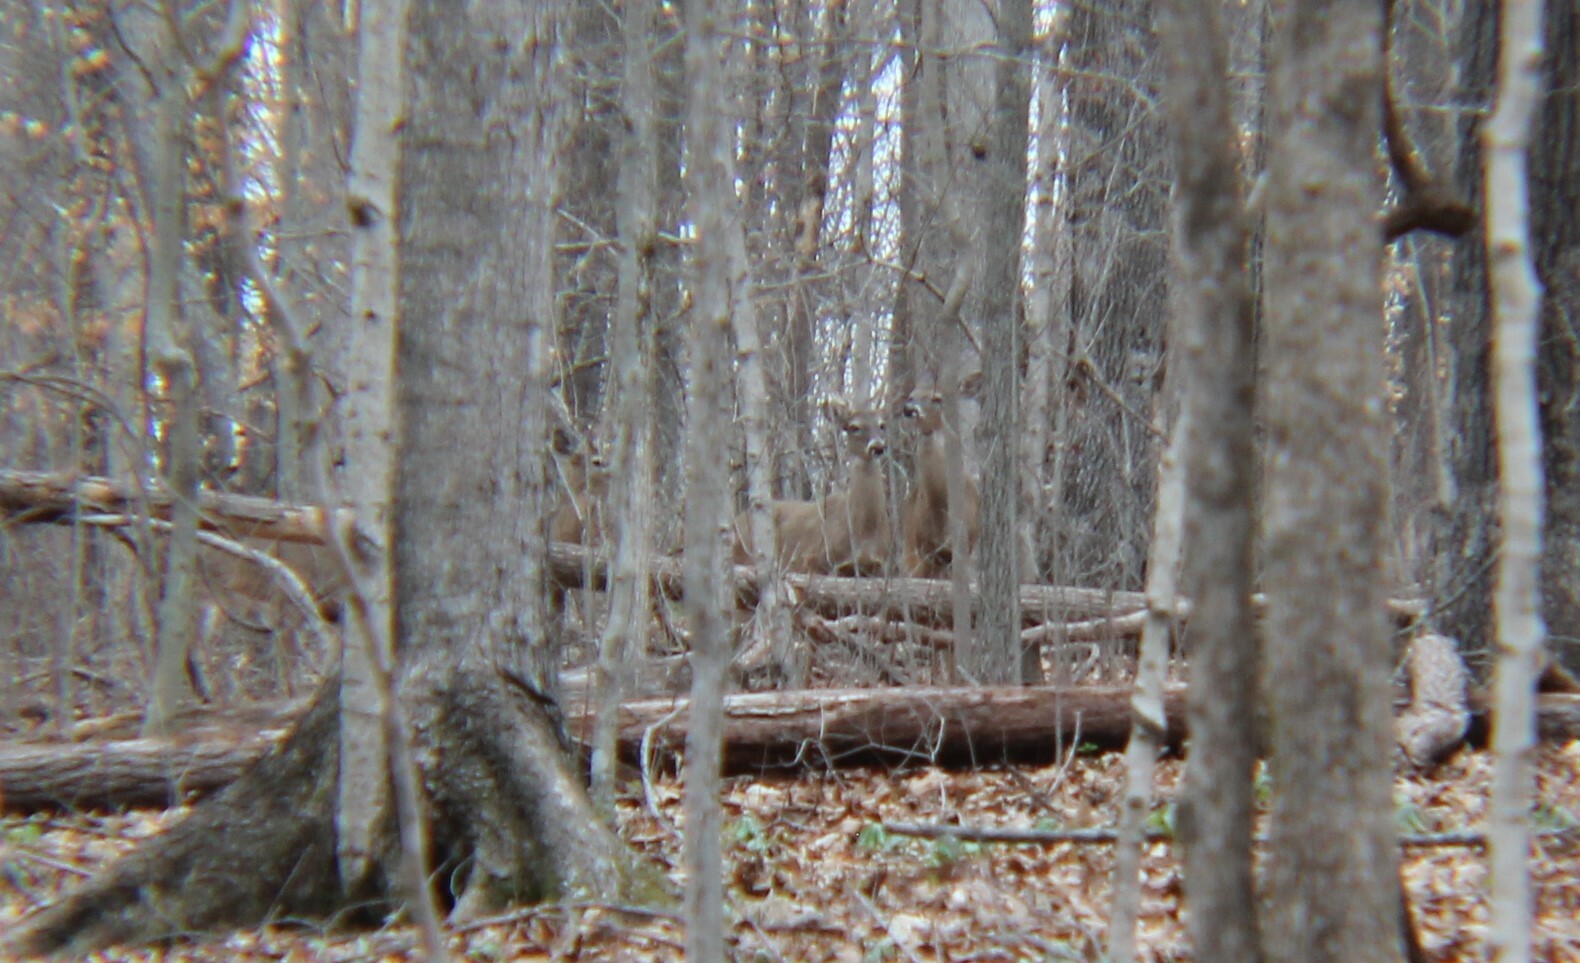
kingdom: Animalia
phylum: Chordata
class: Mammalia
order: Artiodactyla
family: Cervidae
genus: Odocoileus
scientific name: Odocoileus virginianus
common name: White-tailed deer
